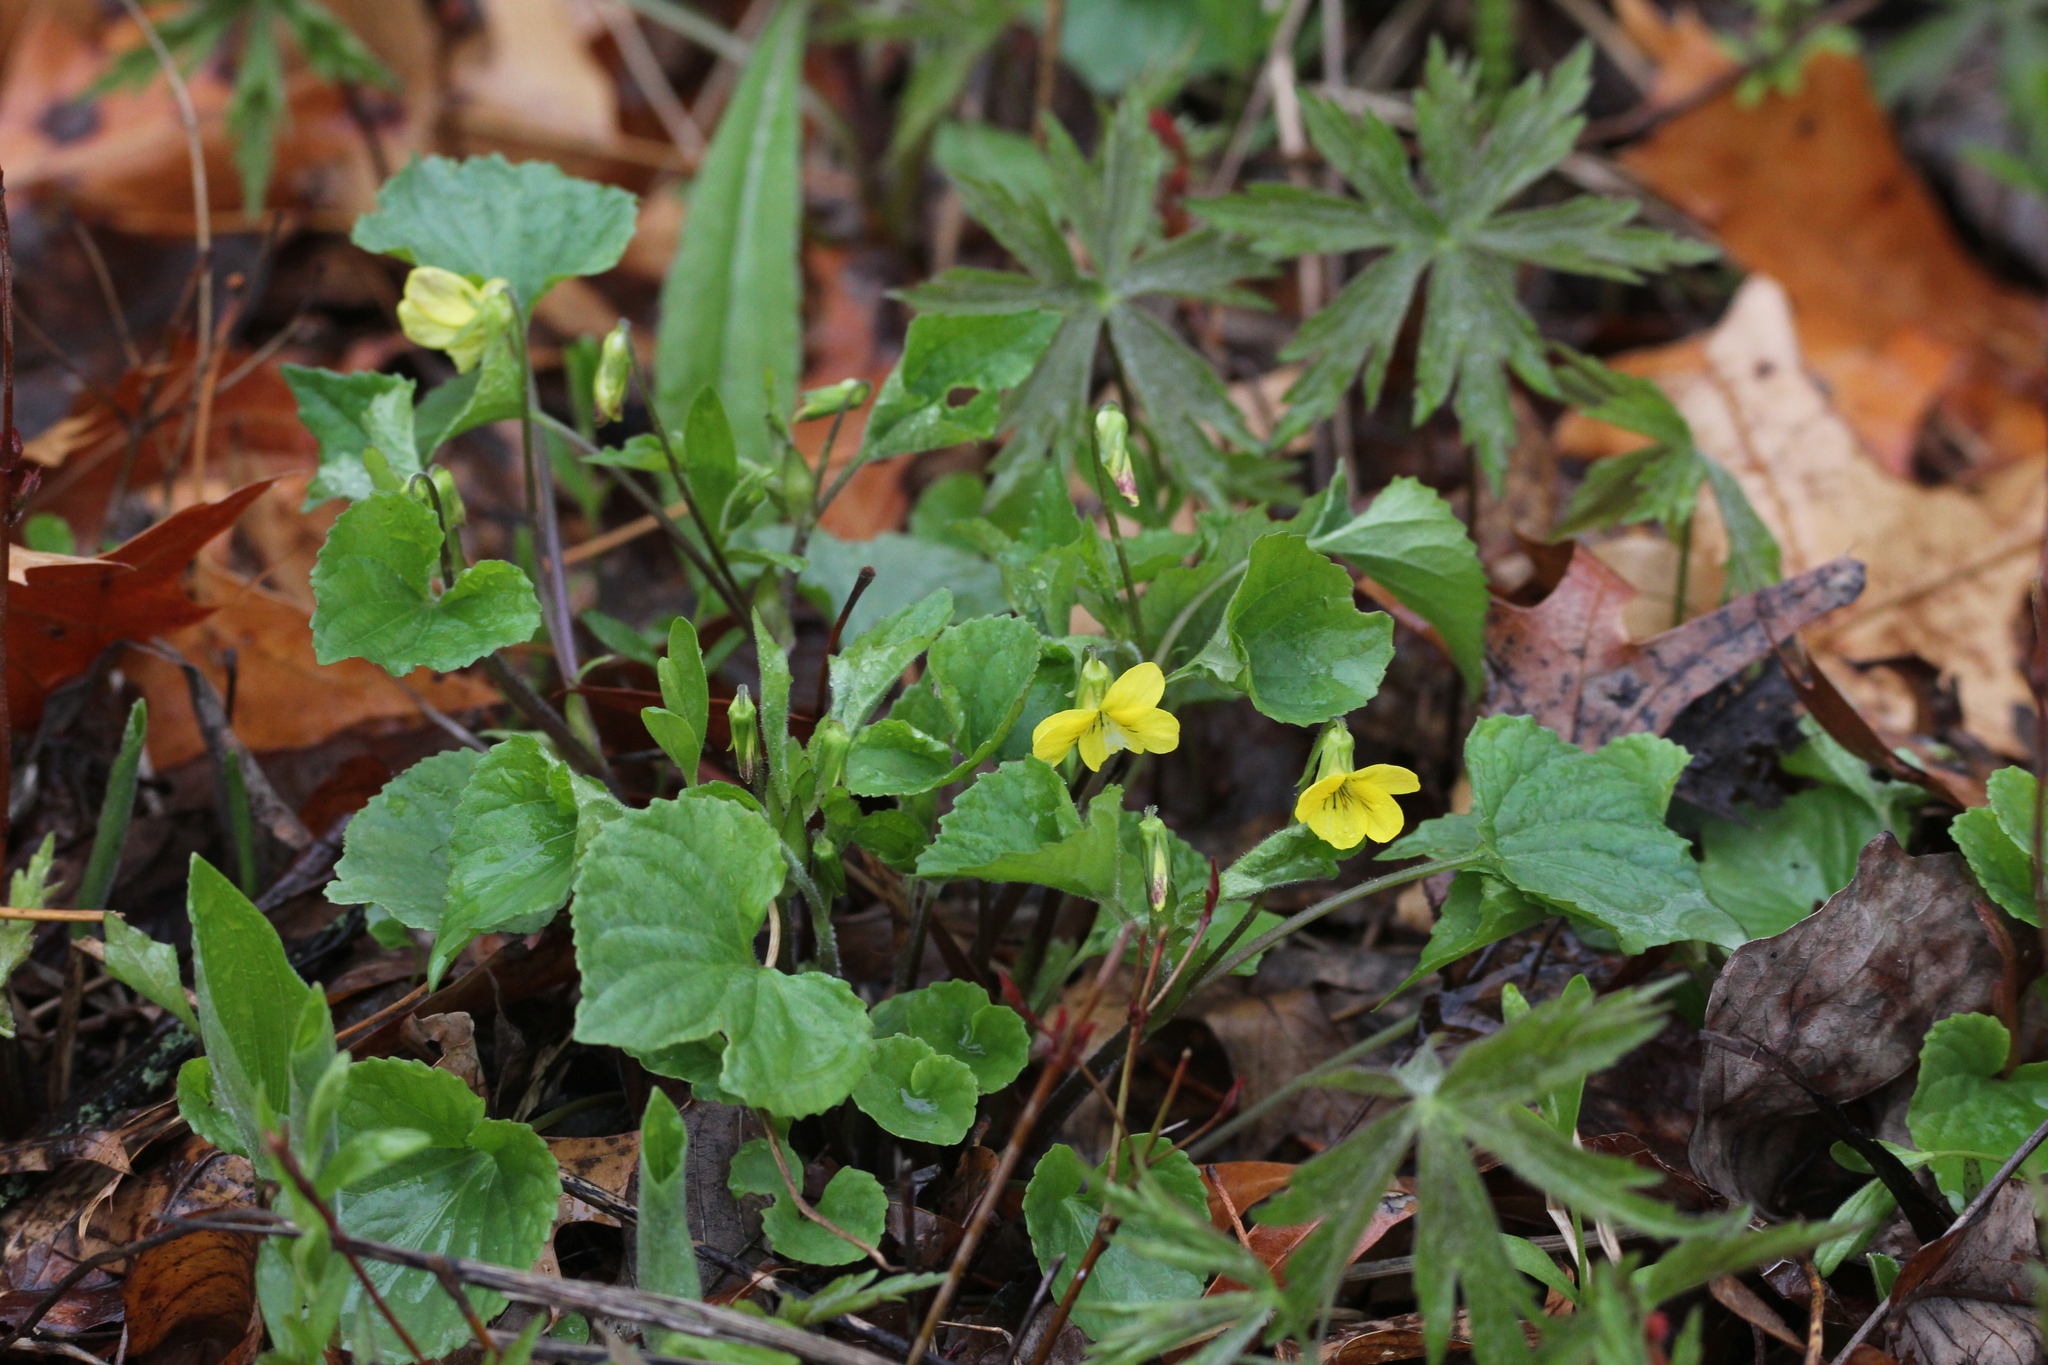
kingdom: Plantae
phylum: Tracheophyta
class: Magnoliopsida
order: Malpighiales
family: Violaceae
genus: Viola
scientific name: Viola eriocarpa
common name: Smooth yellow violet
